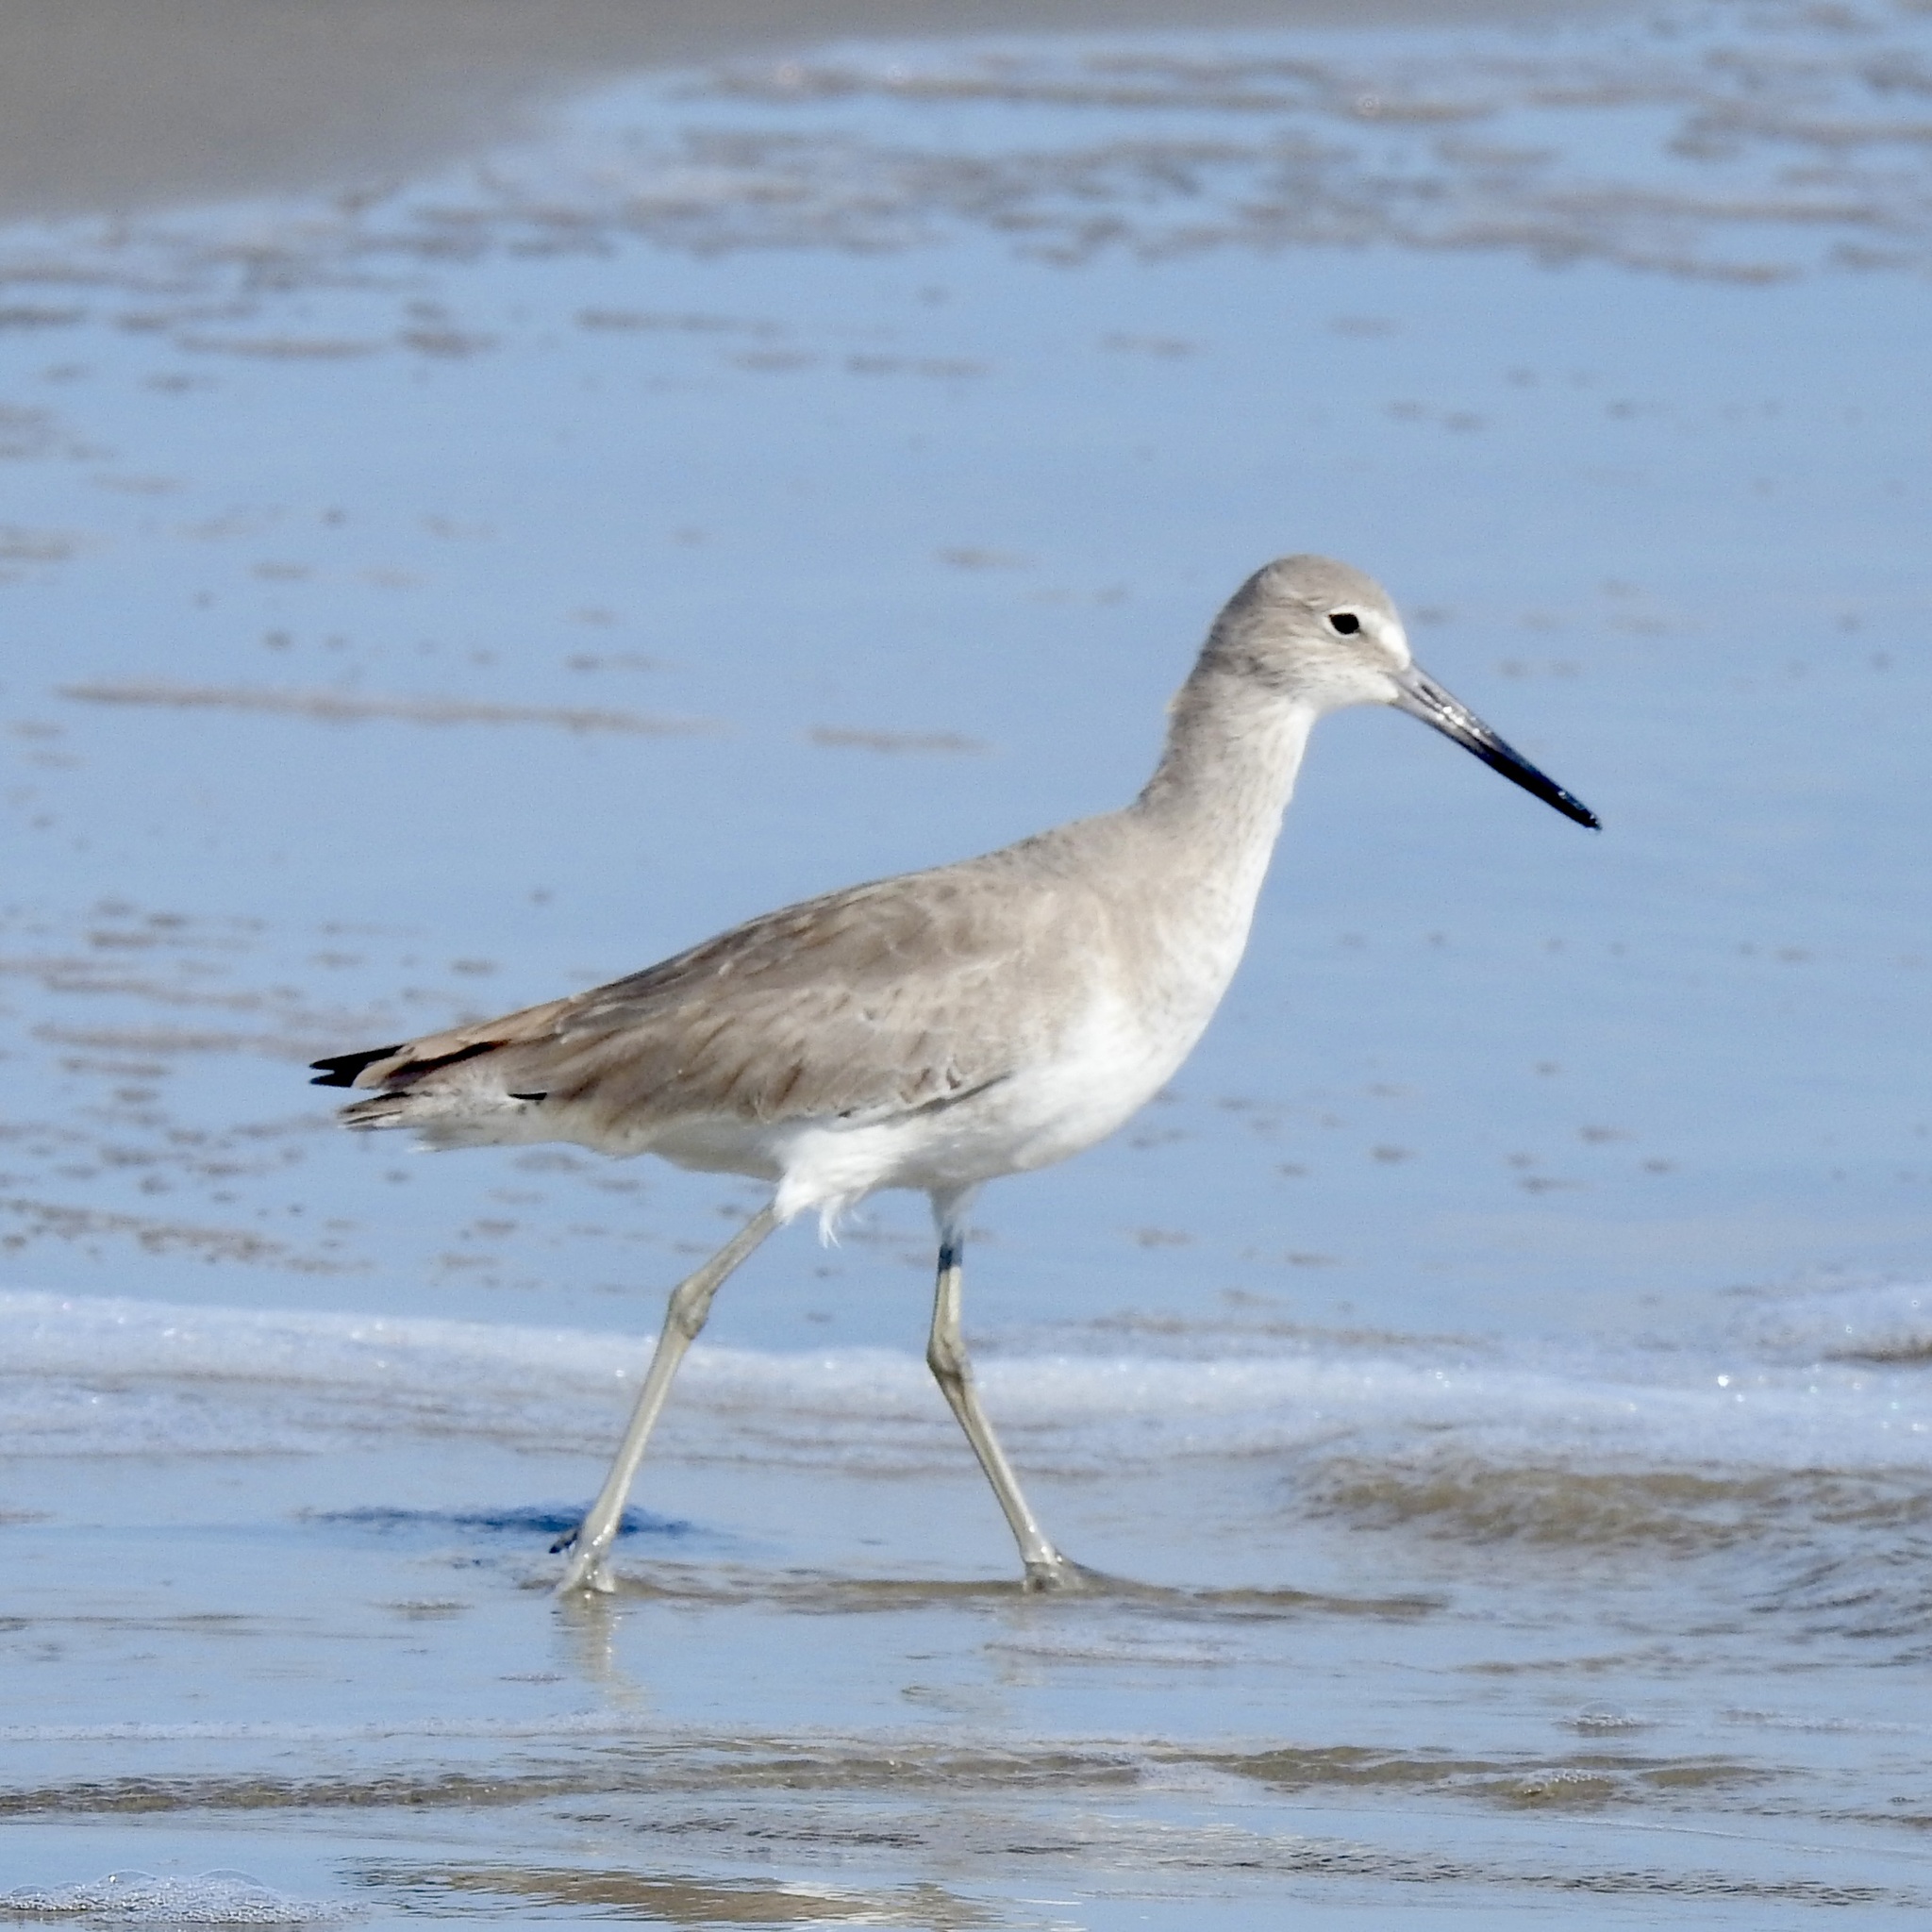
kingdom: Animalia
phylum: Chordata
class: Aves
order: Charadriiformes
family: Scolopacidae
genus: Tringa
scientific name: Tringa semipalmata
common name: Willet
